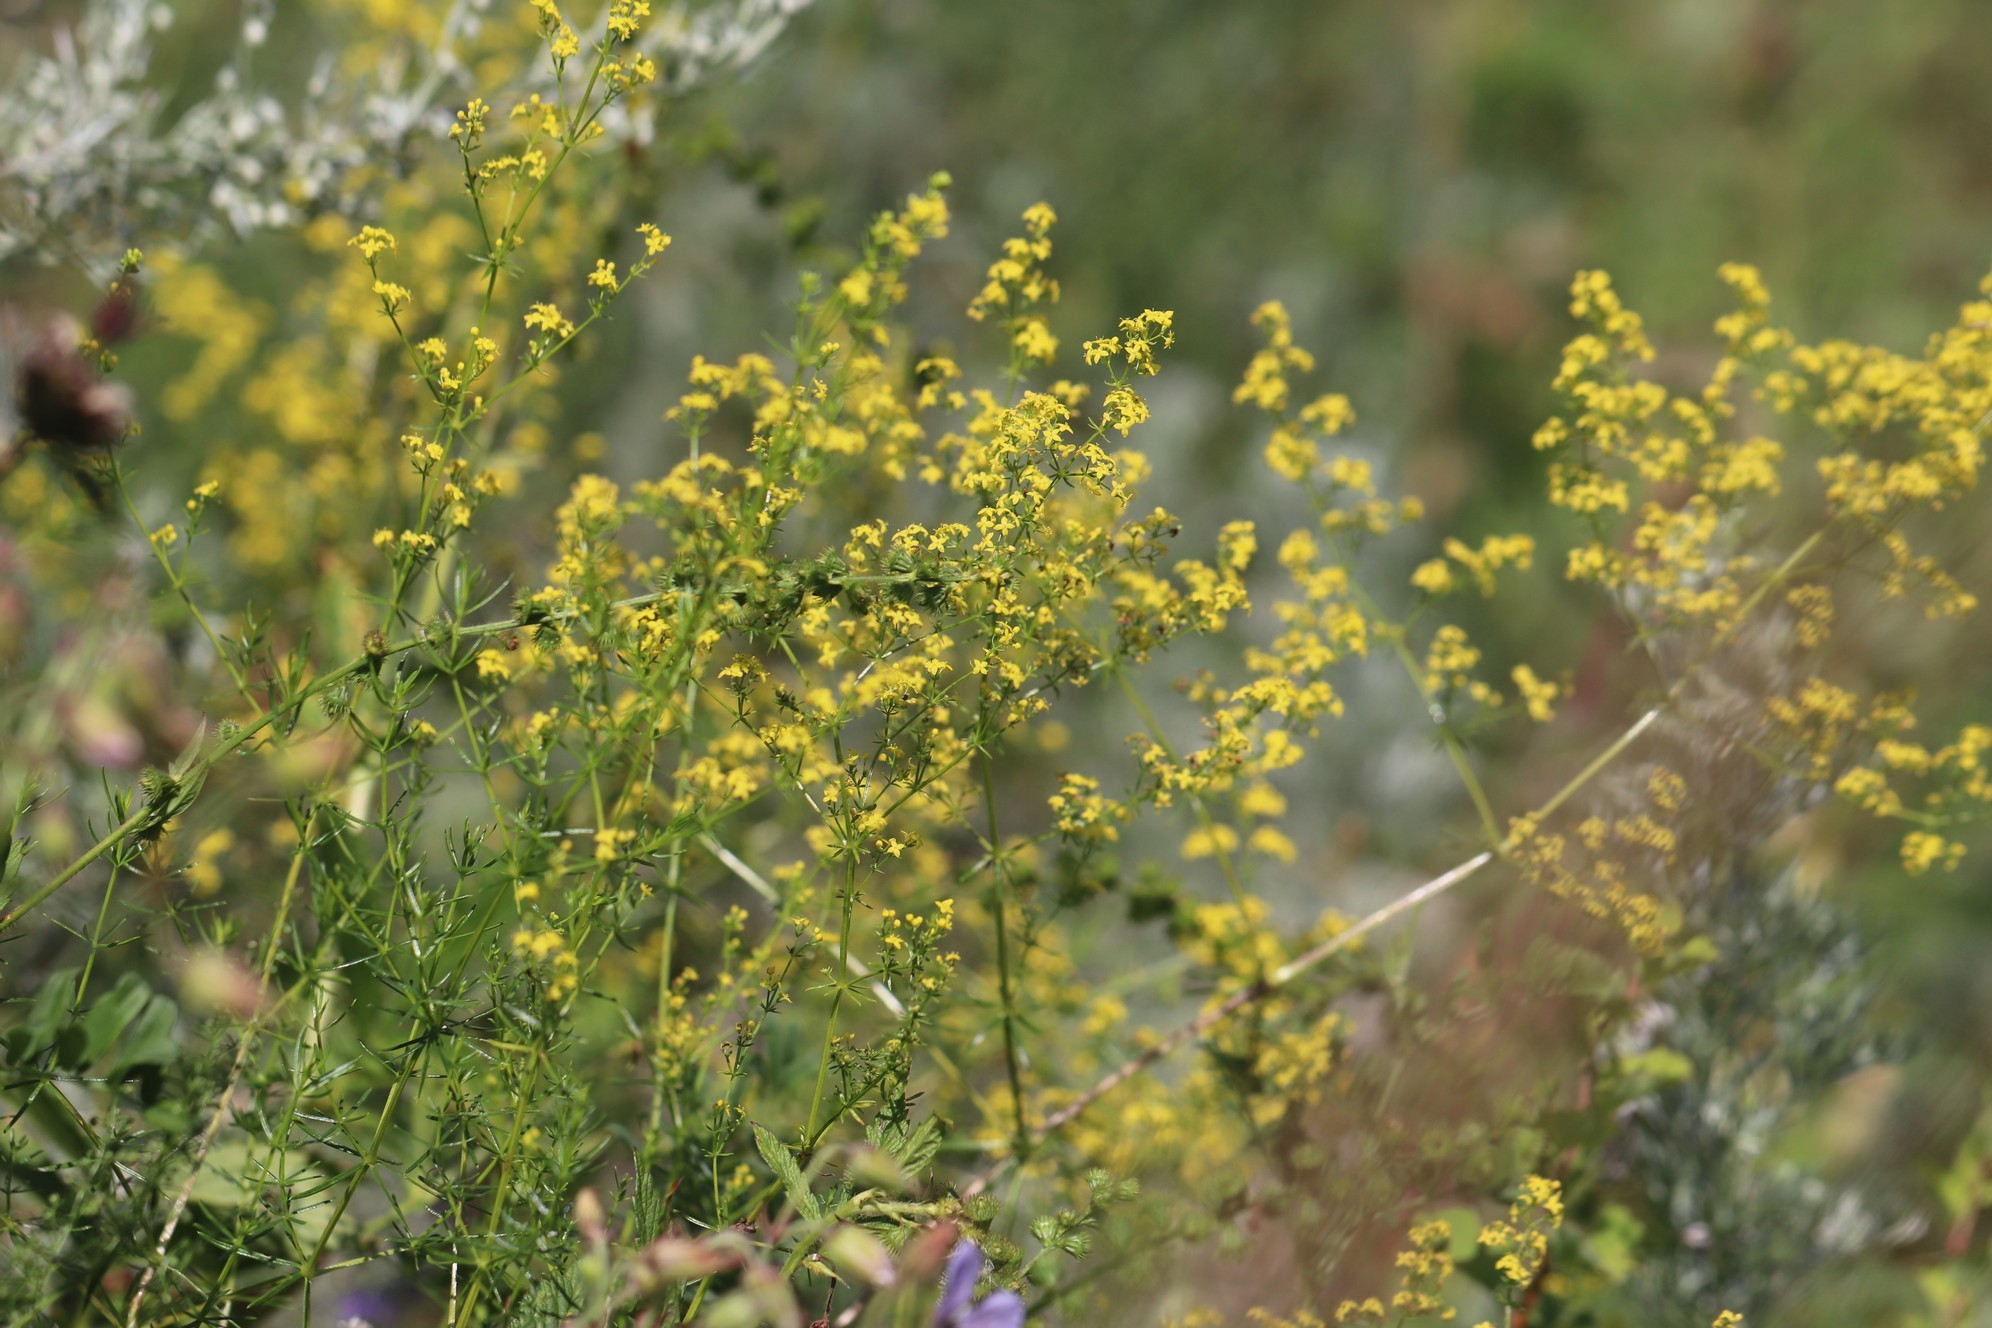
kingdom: Plantae
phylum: Tracheophyta
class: Magnoliopsida
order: Gentianales
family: Rubiaceae
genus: Galium
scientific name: Galium verum
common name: Lady's bedstraw
